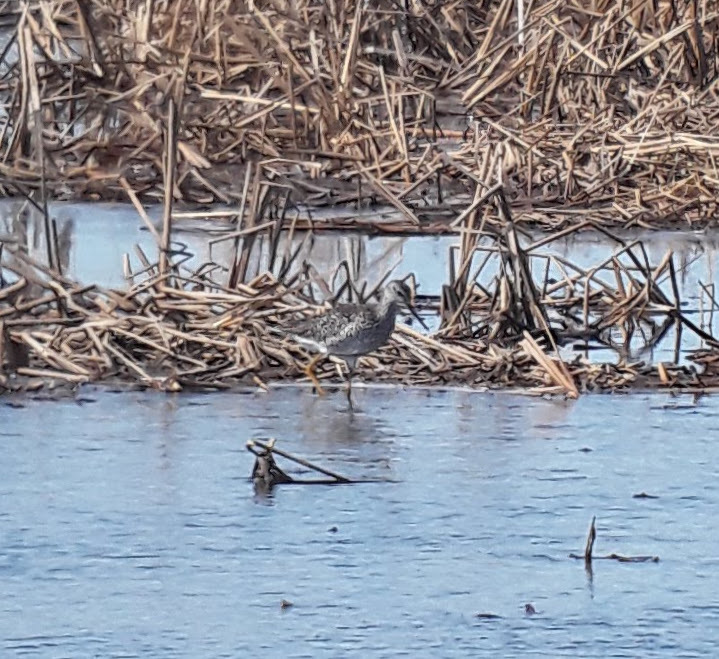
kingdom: Animalia
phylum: Chordata
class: Aves
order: Charadriiformes
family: Scolopacidae
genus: Tringa
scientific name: Tringa melanoleuca
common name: Greater yellowlegs
